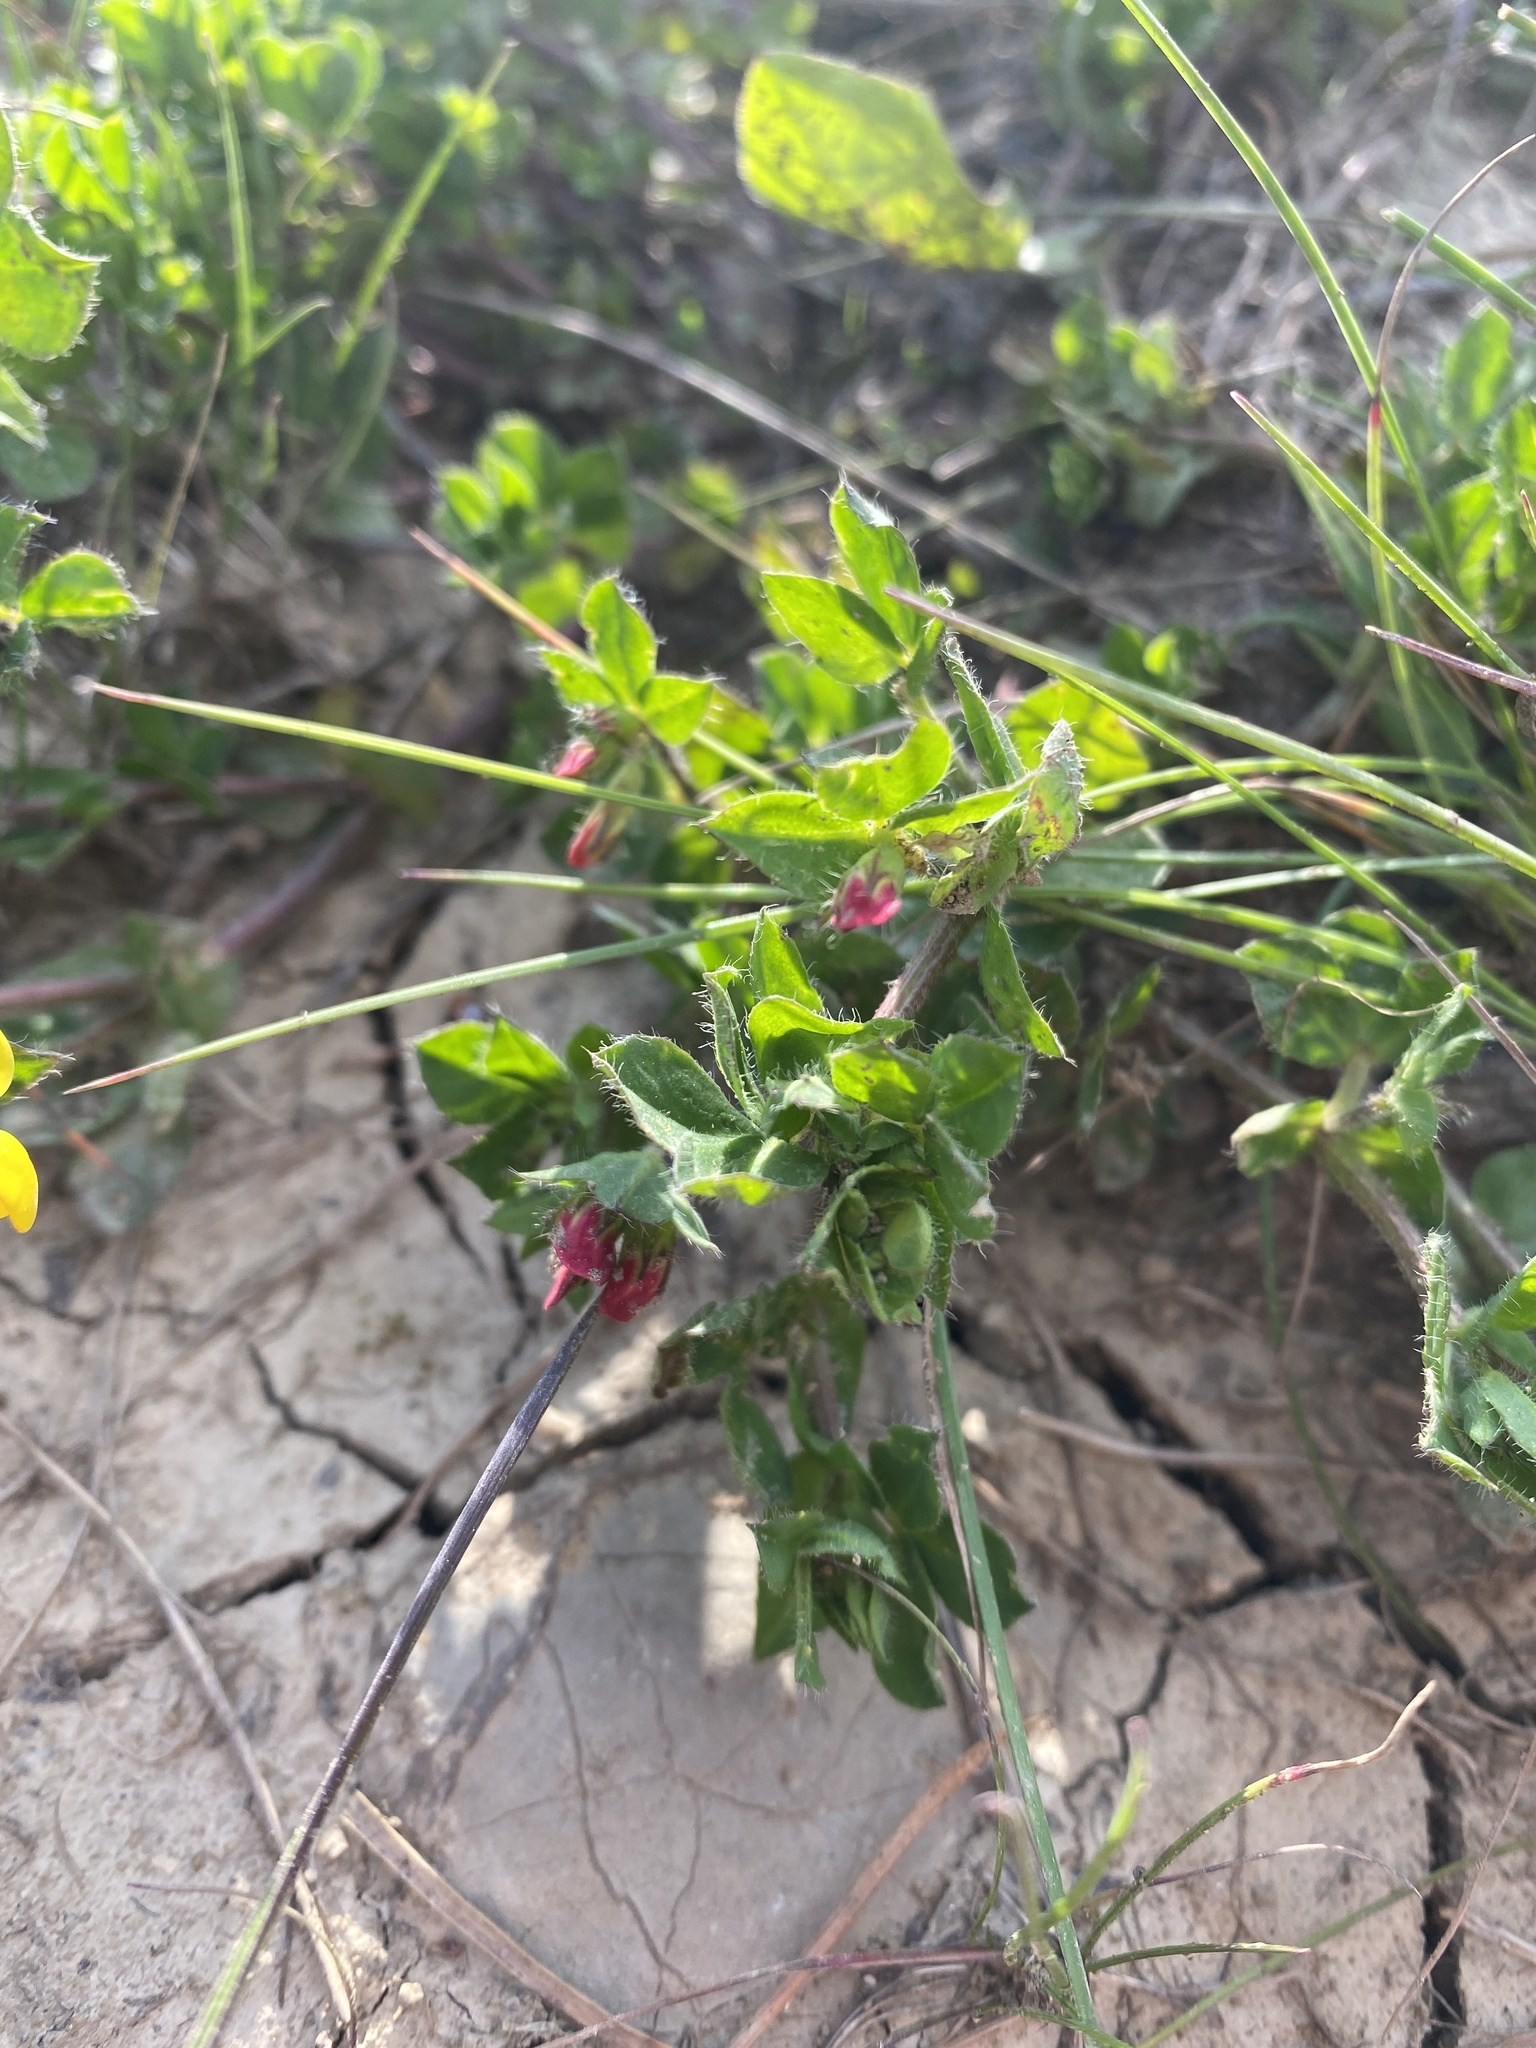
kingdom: Plantae
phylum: Tracheophyta
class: Magnoliopsida
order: Fabales
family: Fabaceae
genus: Lotus
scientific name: Lotus corniculatus
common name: Common bird's-foot-trefoil
